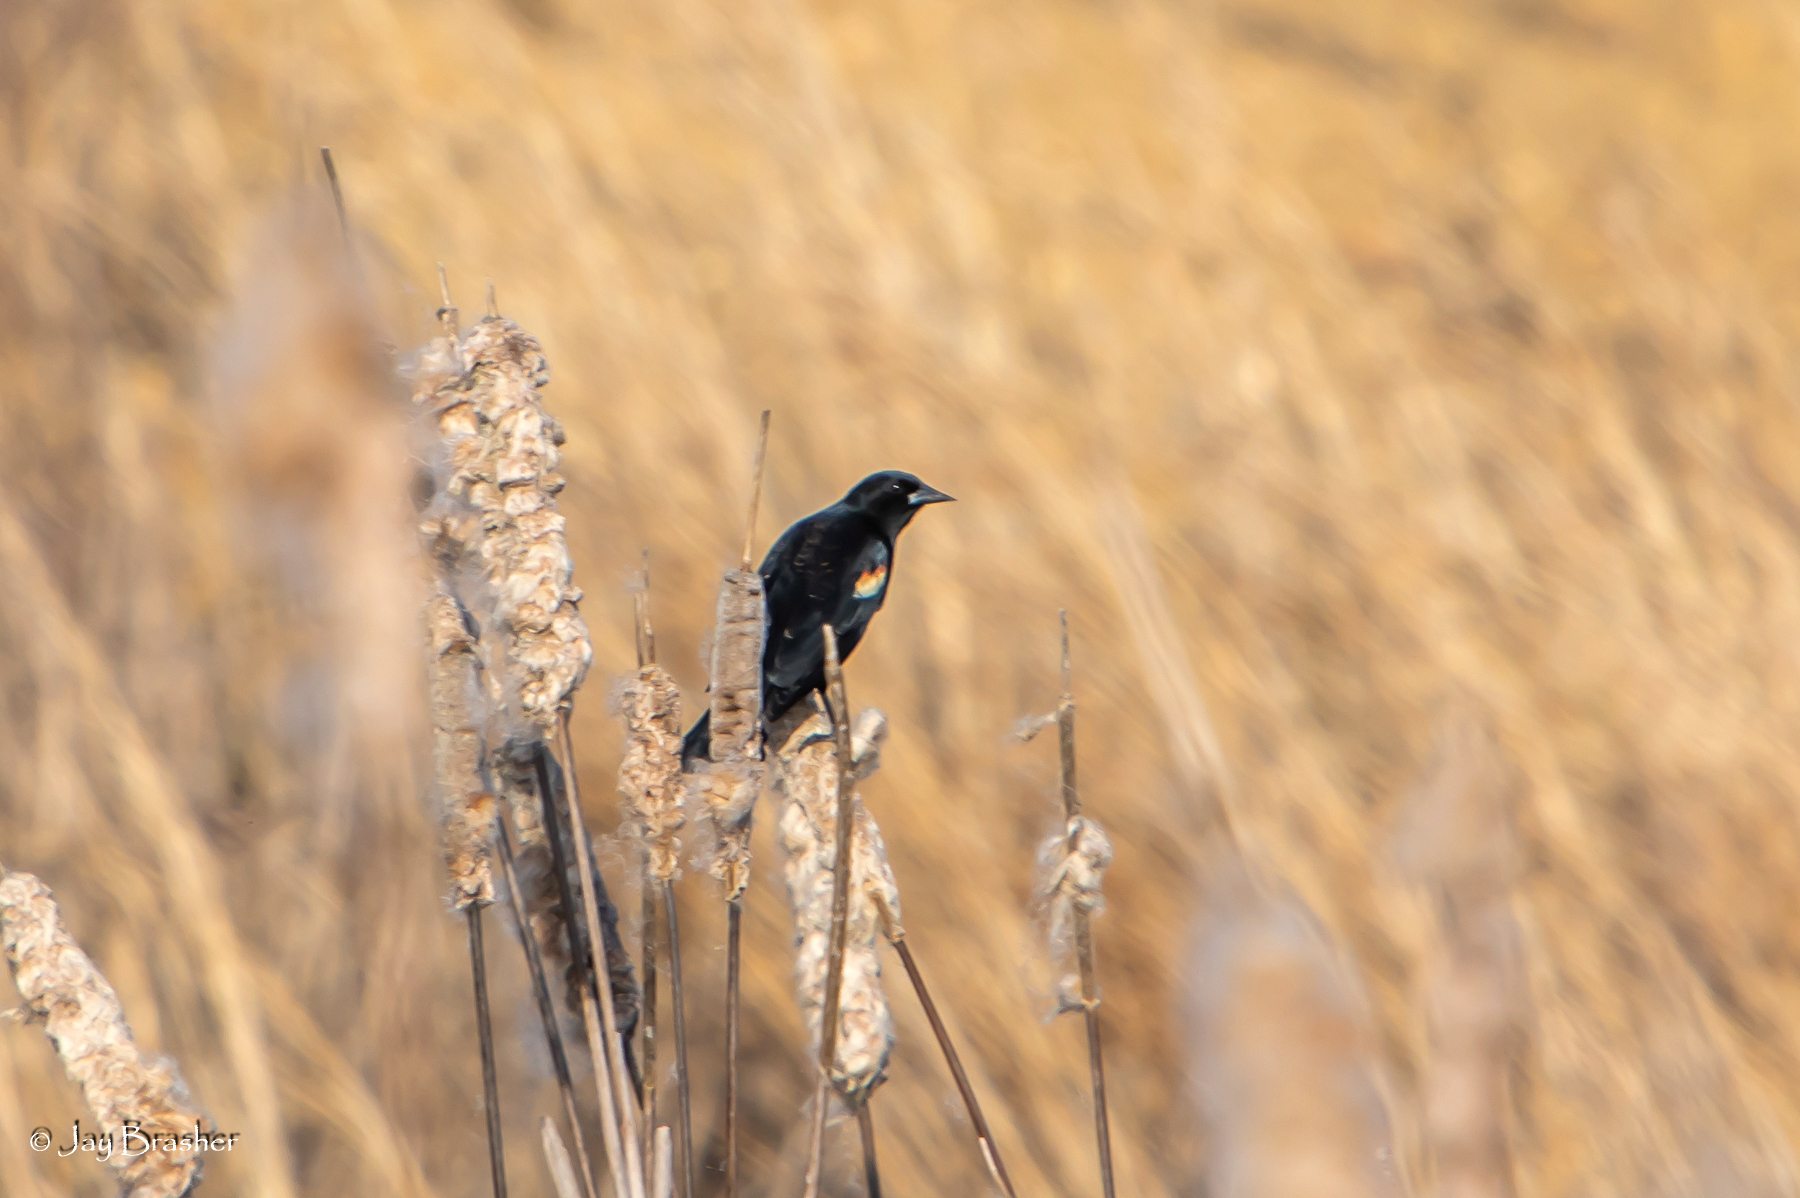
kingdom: Animalia
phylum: Chordata
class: Aves
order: Passeriformes
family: Icteridae
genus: Agelaius
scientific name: Agelaius phoeniceus
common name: Red-winged blackbird
